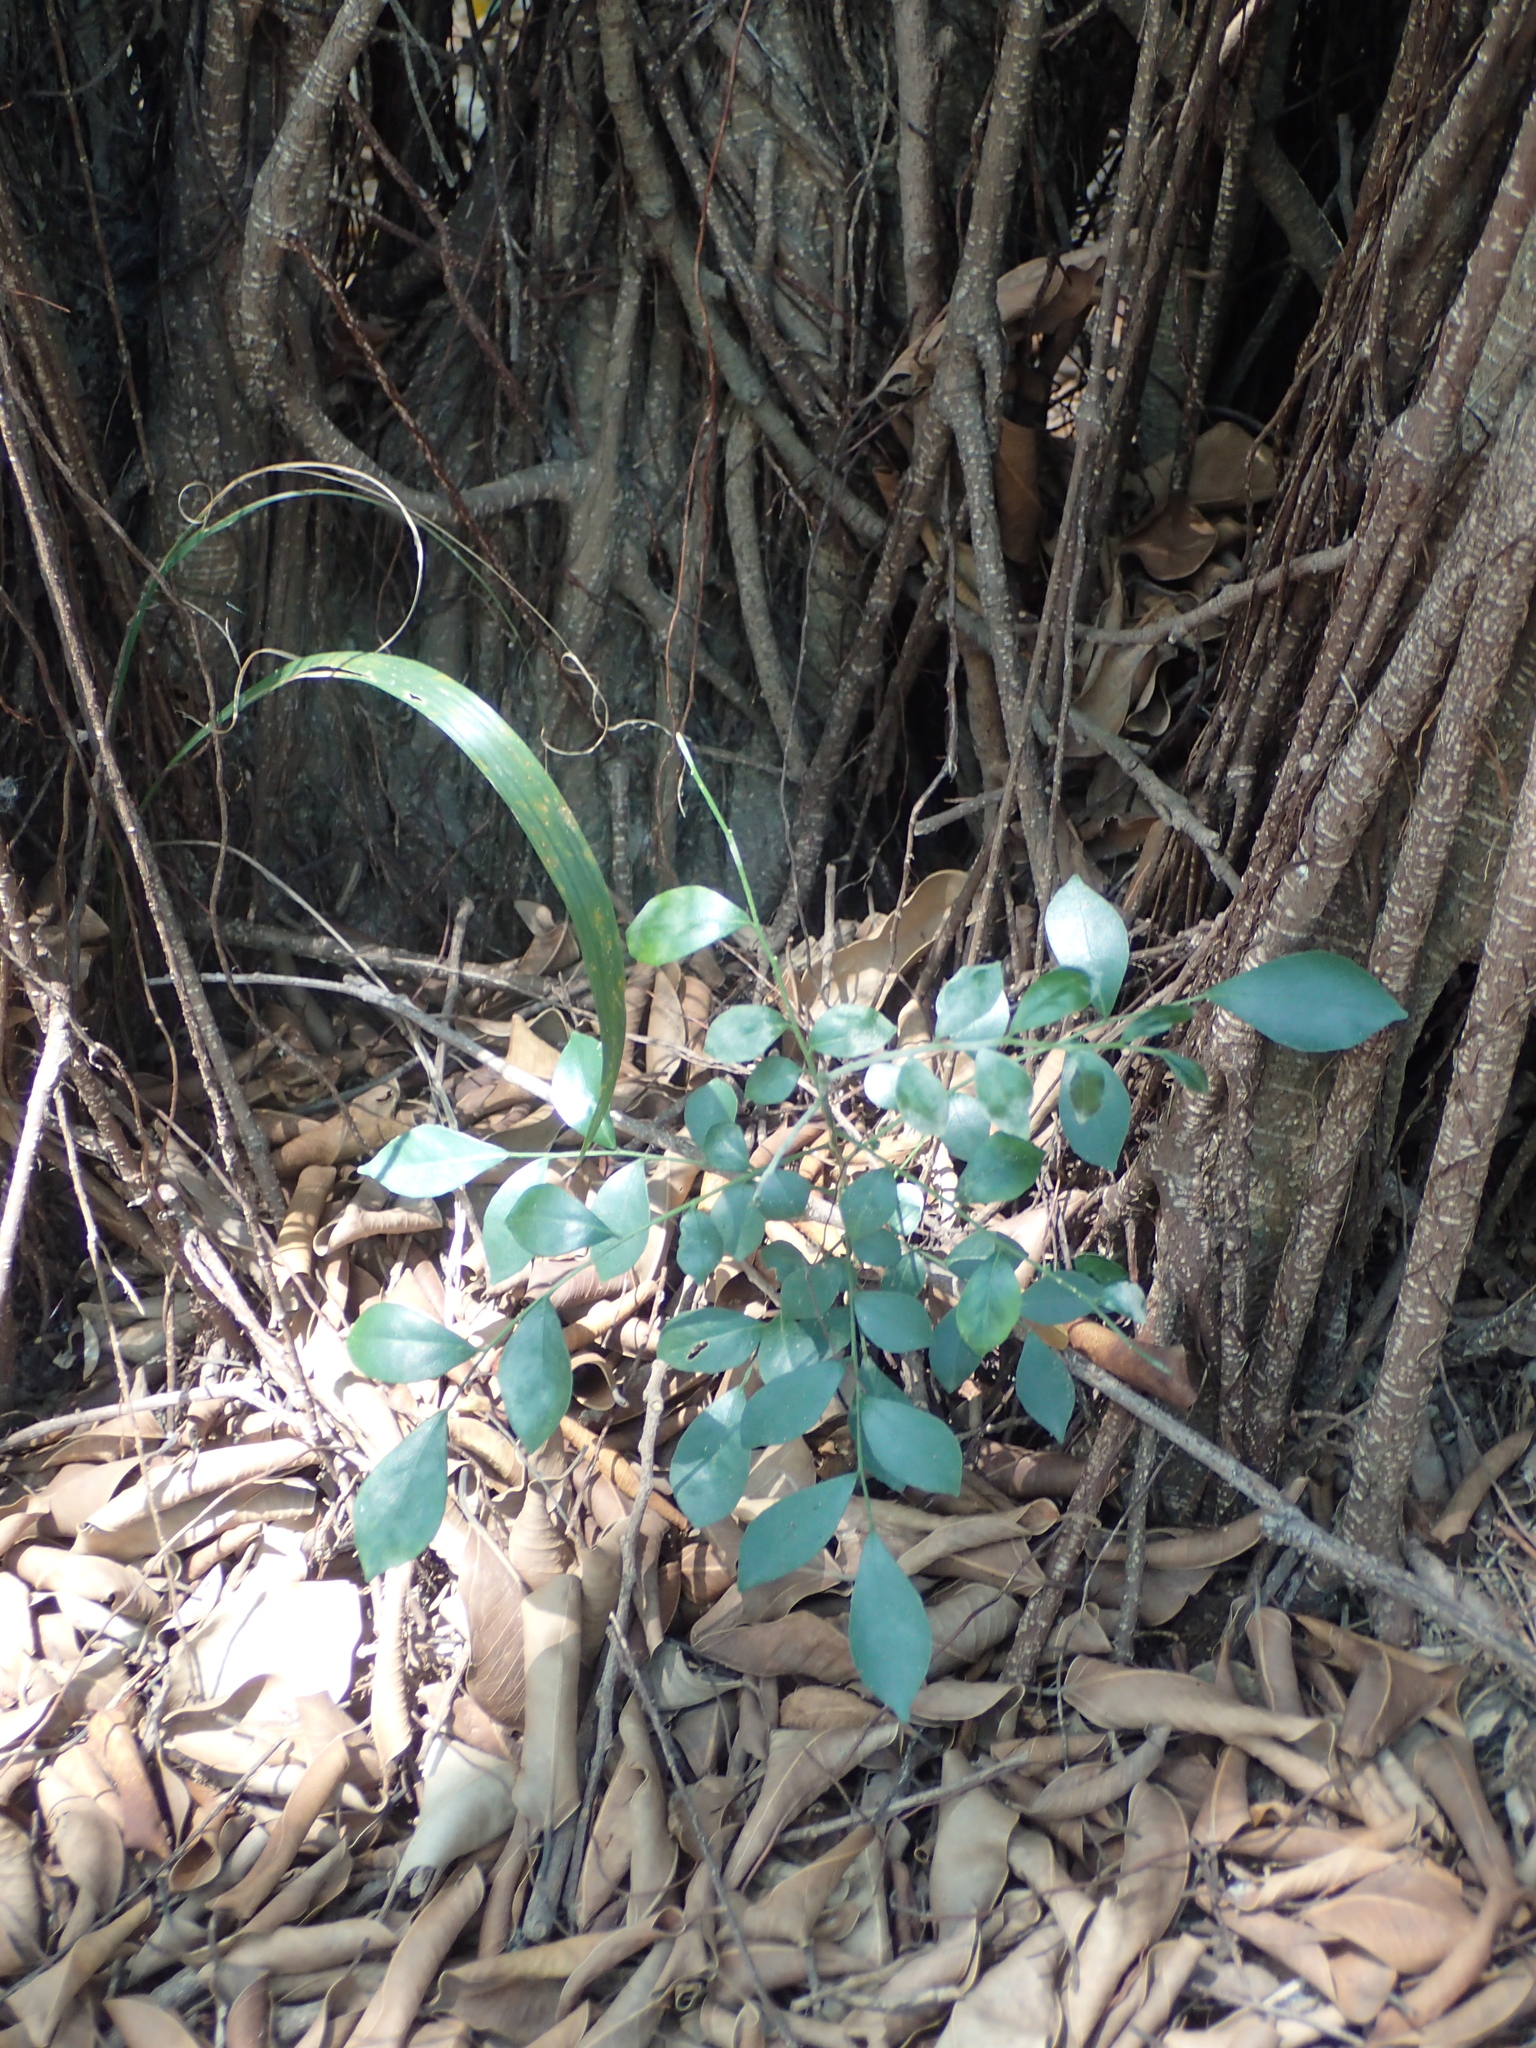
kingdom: Plantae
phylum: Tracheophyta
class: Magnoliopsida
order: Sapindales
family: Rutaceae
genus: Murraya
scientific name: Murraya paniculata
